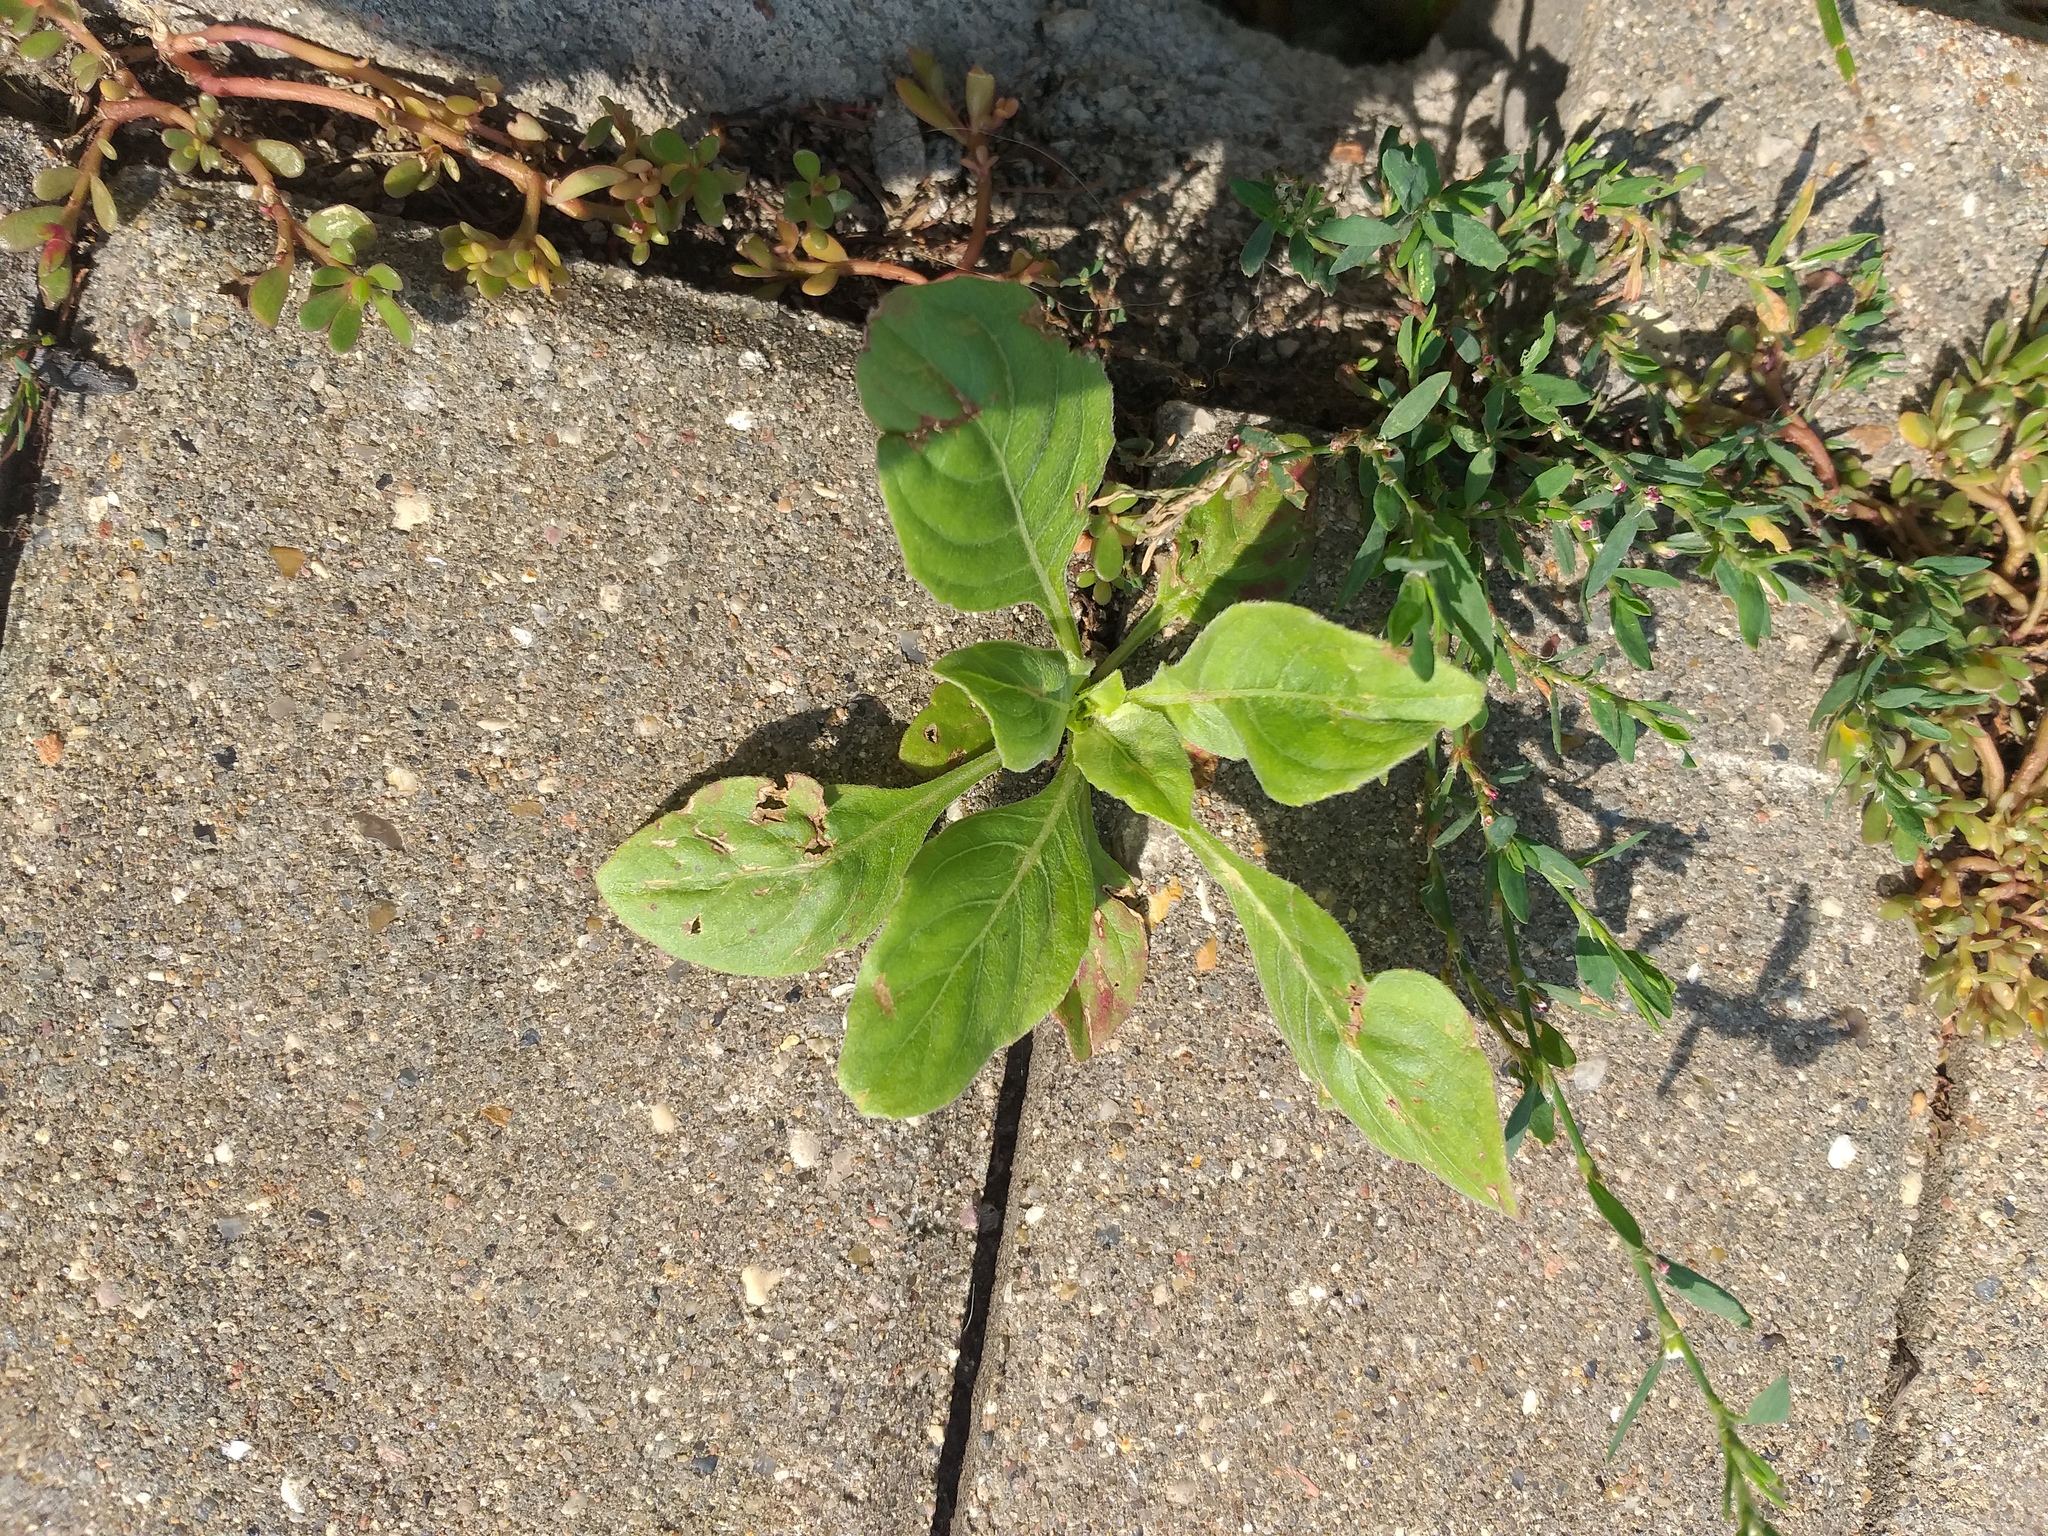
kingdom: Plantae
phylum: Tracheophyta
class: Magnoliopsida
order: Myrtales
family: Onagraceae
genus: Oenothera
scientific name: Oenothera
